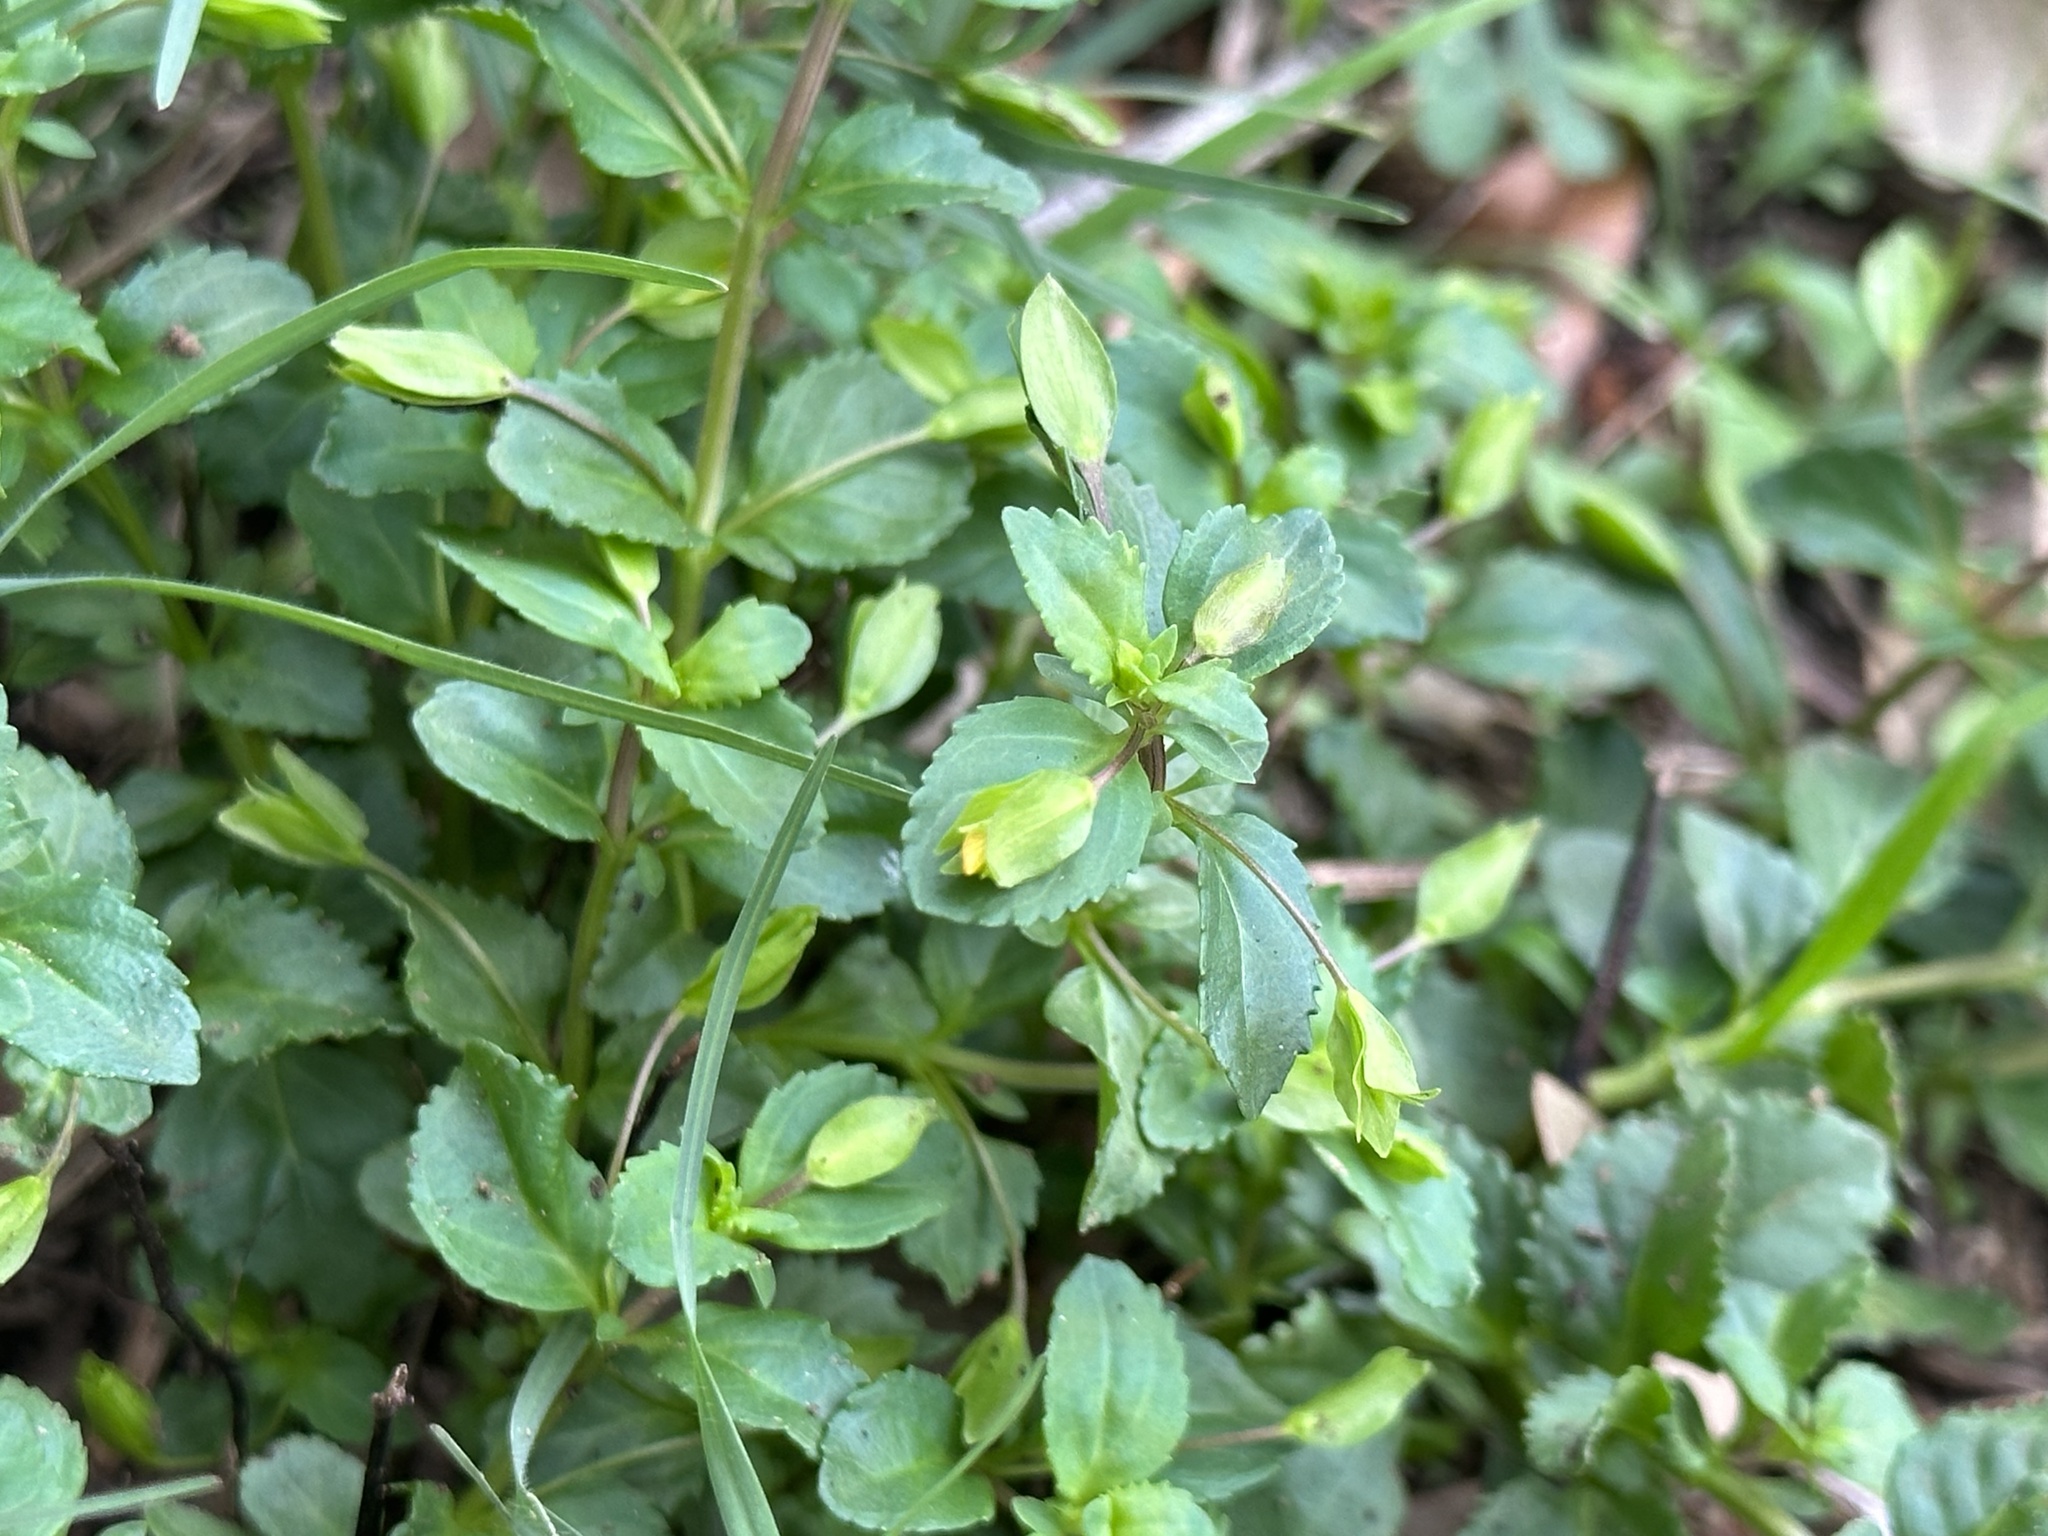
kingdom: Plantae
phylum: Tracheophyta
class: Magnoliopsida
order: Lamiales
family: Plantaginaceae
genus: Mecardonia
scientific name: Mecardonia procumbens
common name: Baby jump-up
